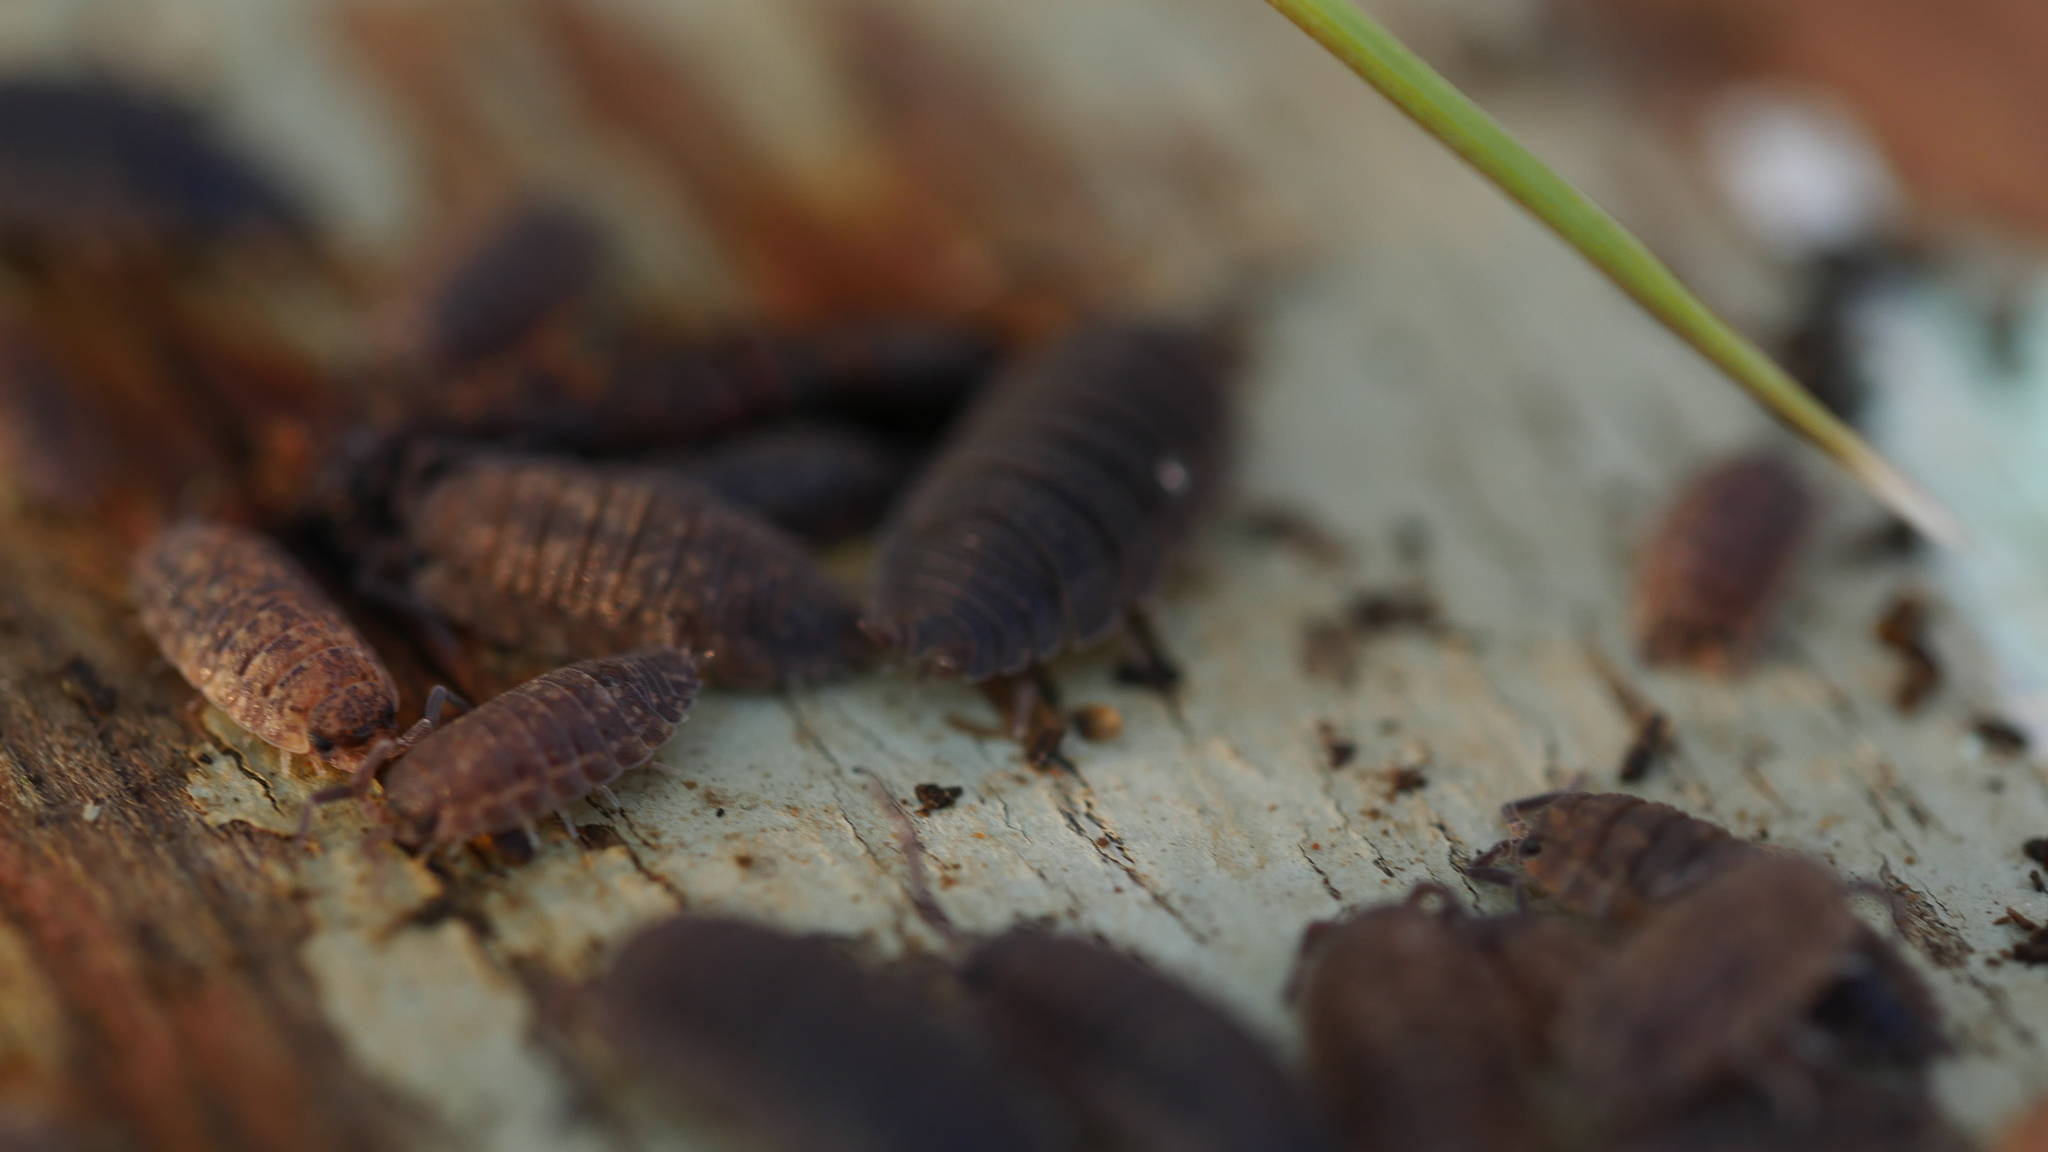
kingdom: Animalia
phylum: Arthropoda
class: Malacostraca
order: Isopoda
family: Porcellionidae
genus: Porcellio
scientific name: Porcellio scaber
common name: Common rough woodlouse
